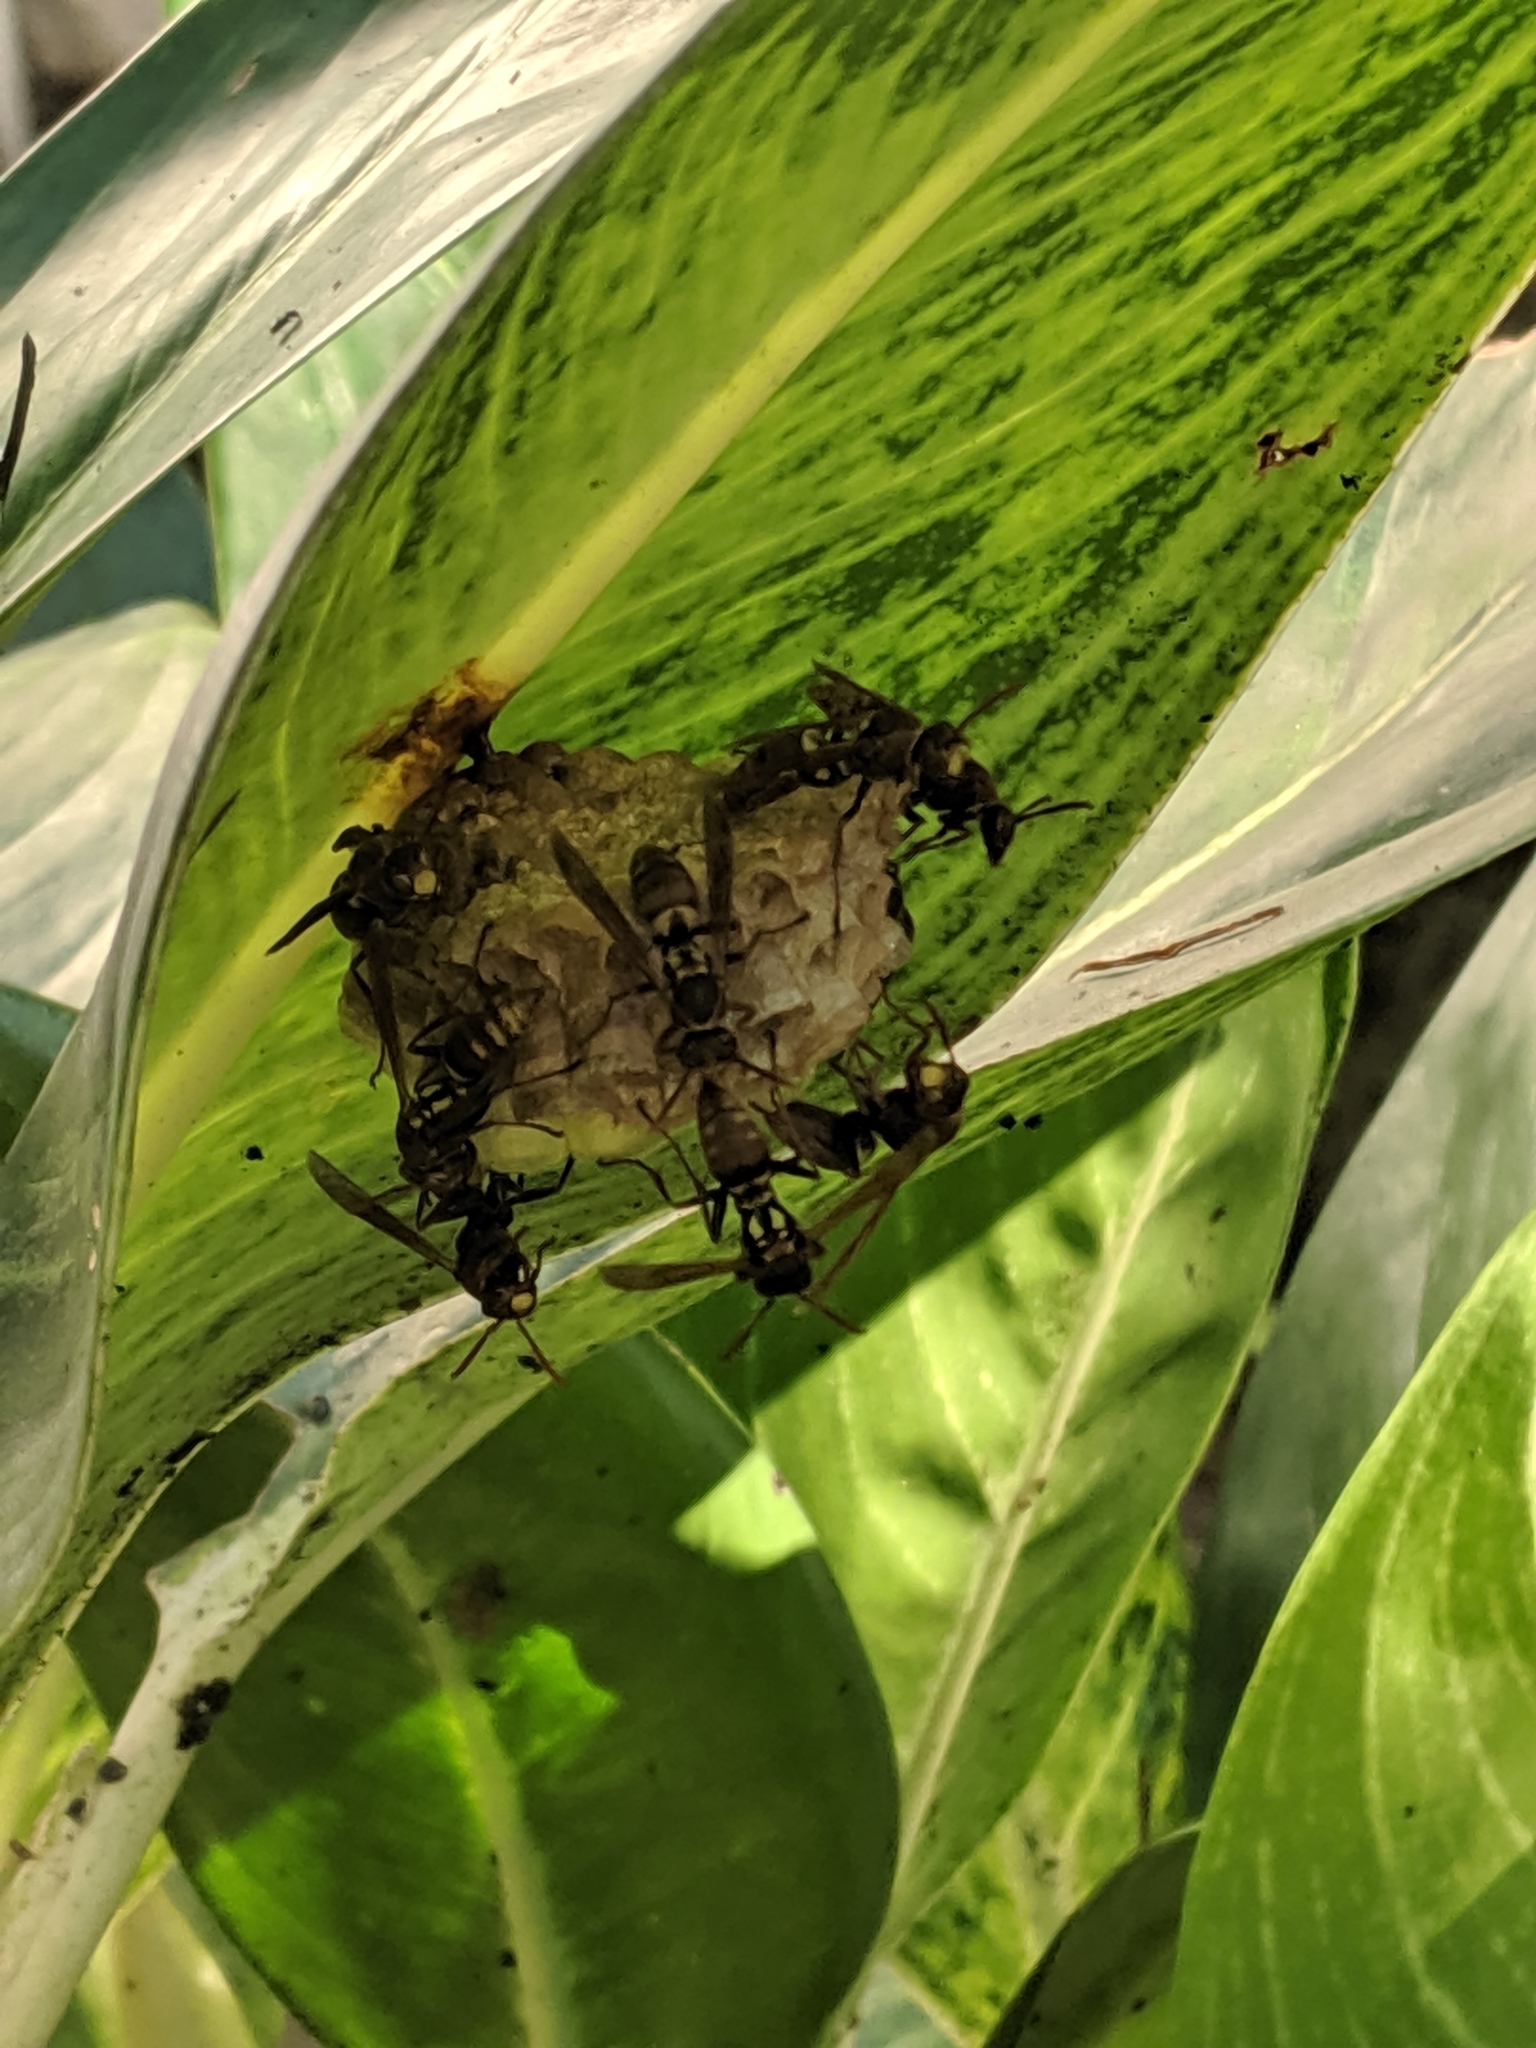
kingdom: Animalia
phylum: Arthropoda
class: Insecta
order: Hymenoptera
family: Eumenidae
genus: Polistes
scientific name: Polistes takasagonus
